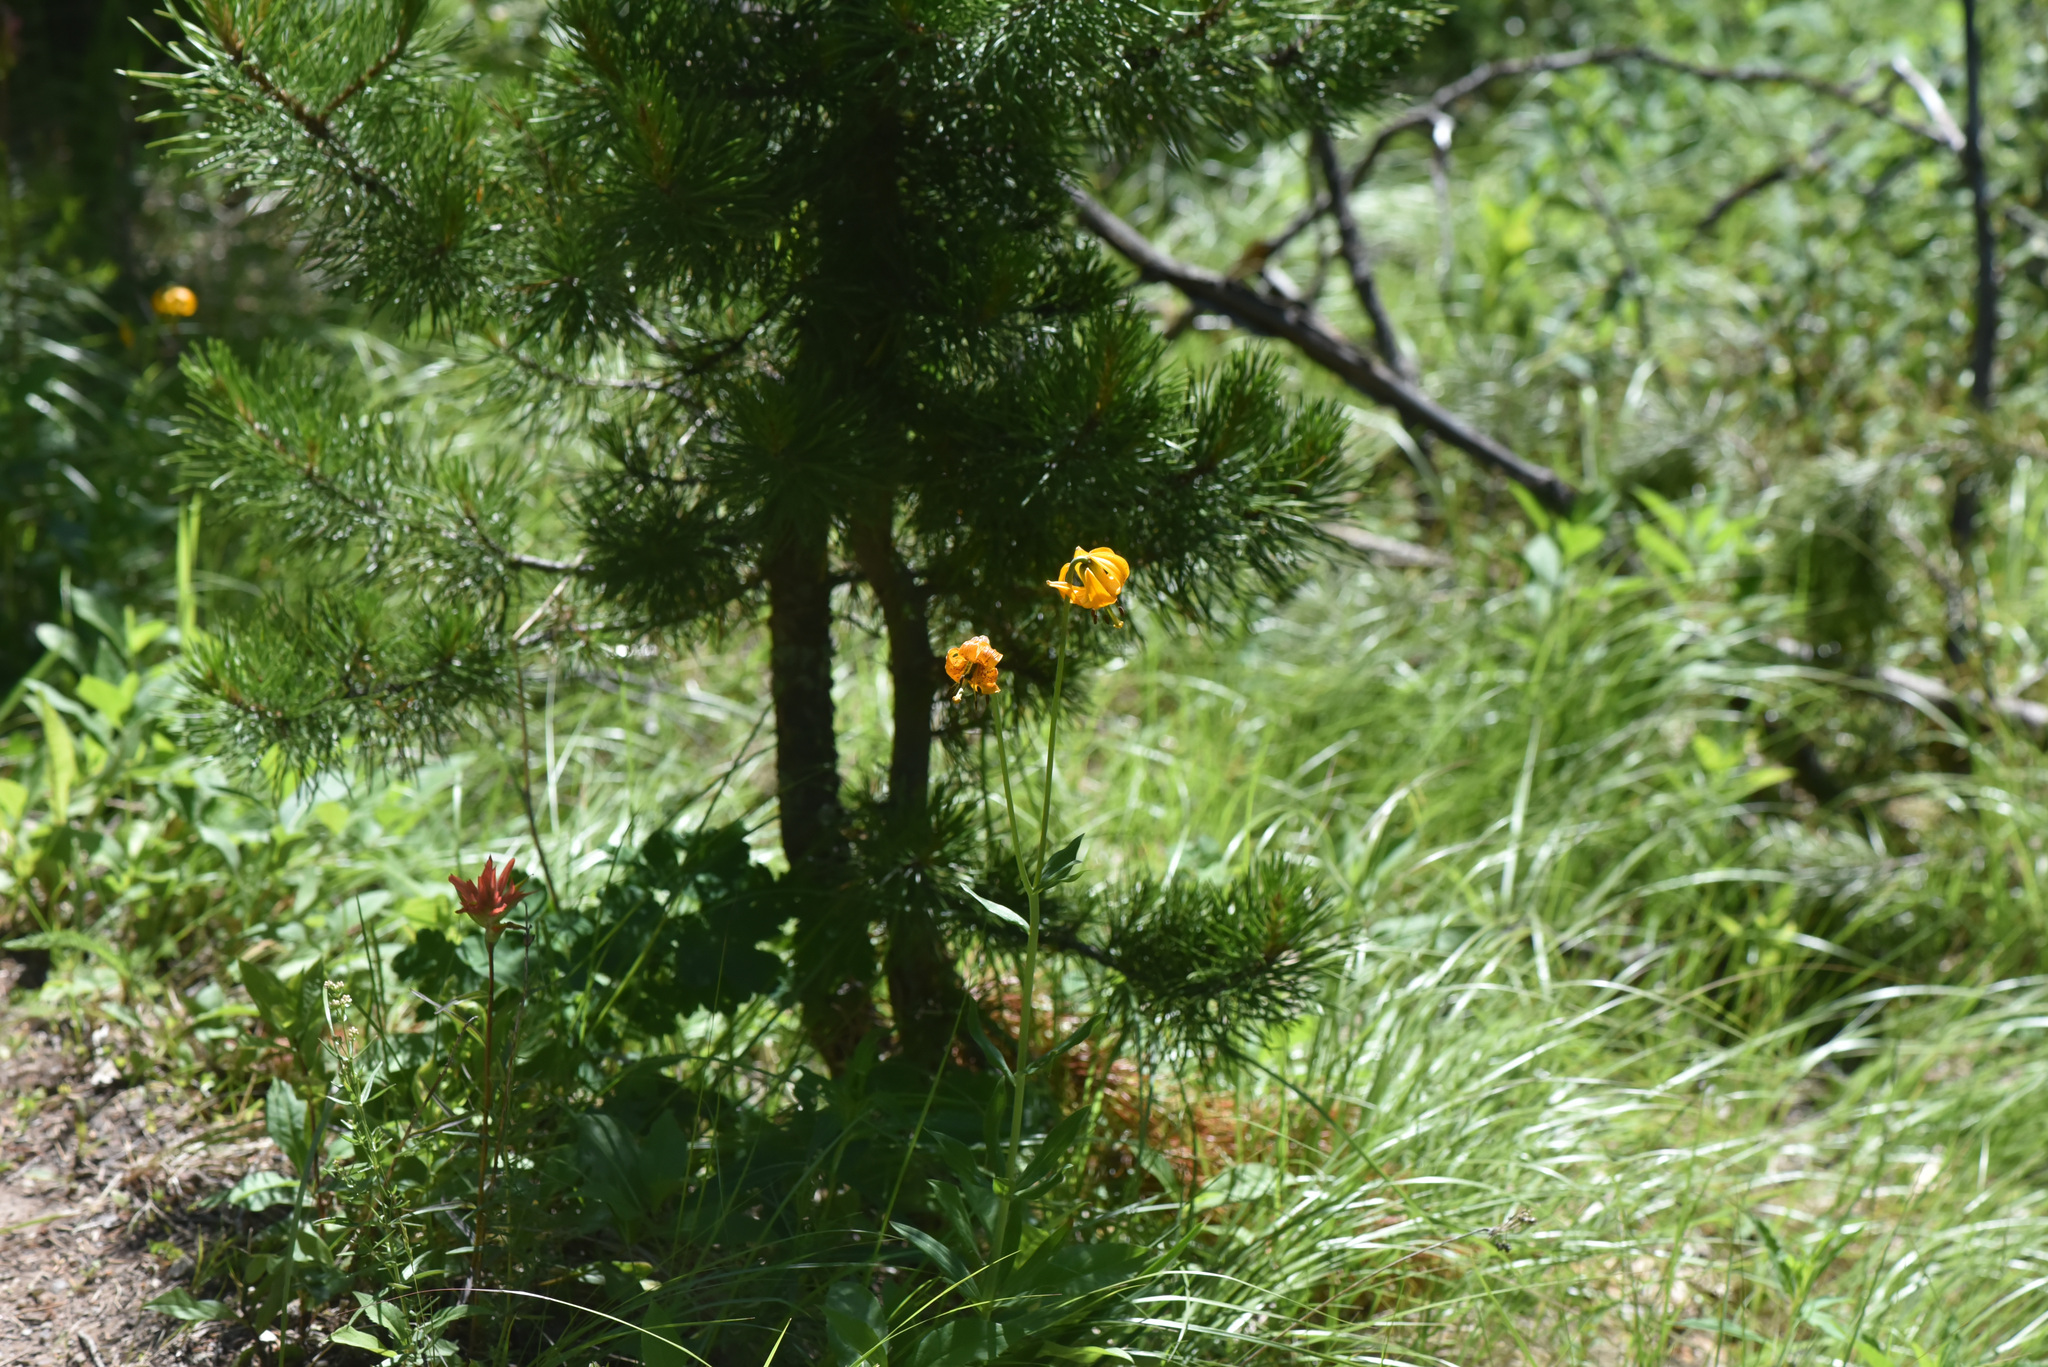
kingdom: Plantae
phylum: Tracheophyta
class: Liliopsida
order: Liliales
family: Liliaceae
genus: Lilium
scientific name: Lilium columbianum
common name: Columbia lily
